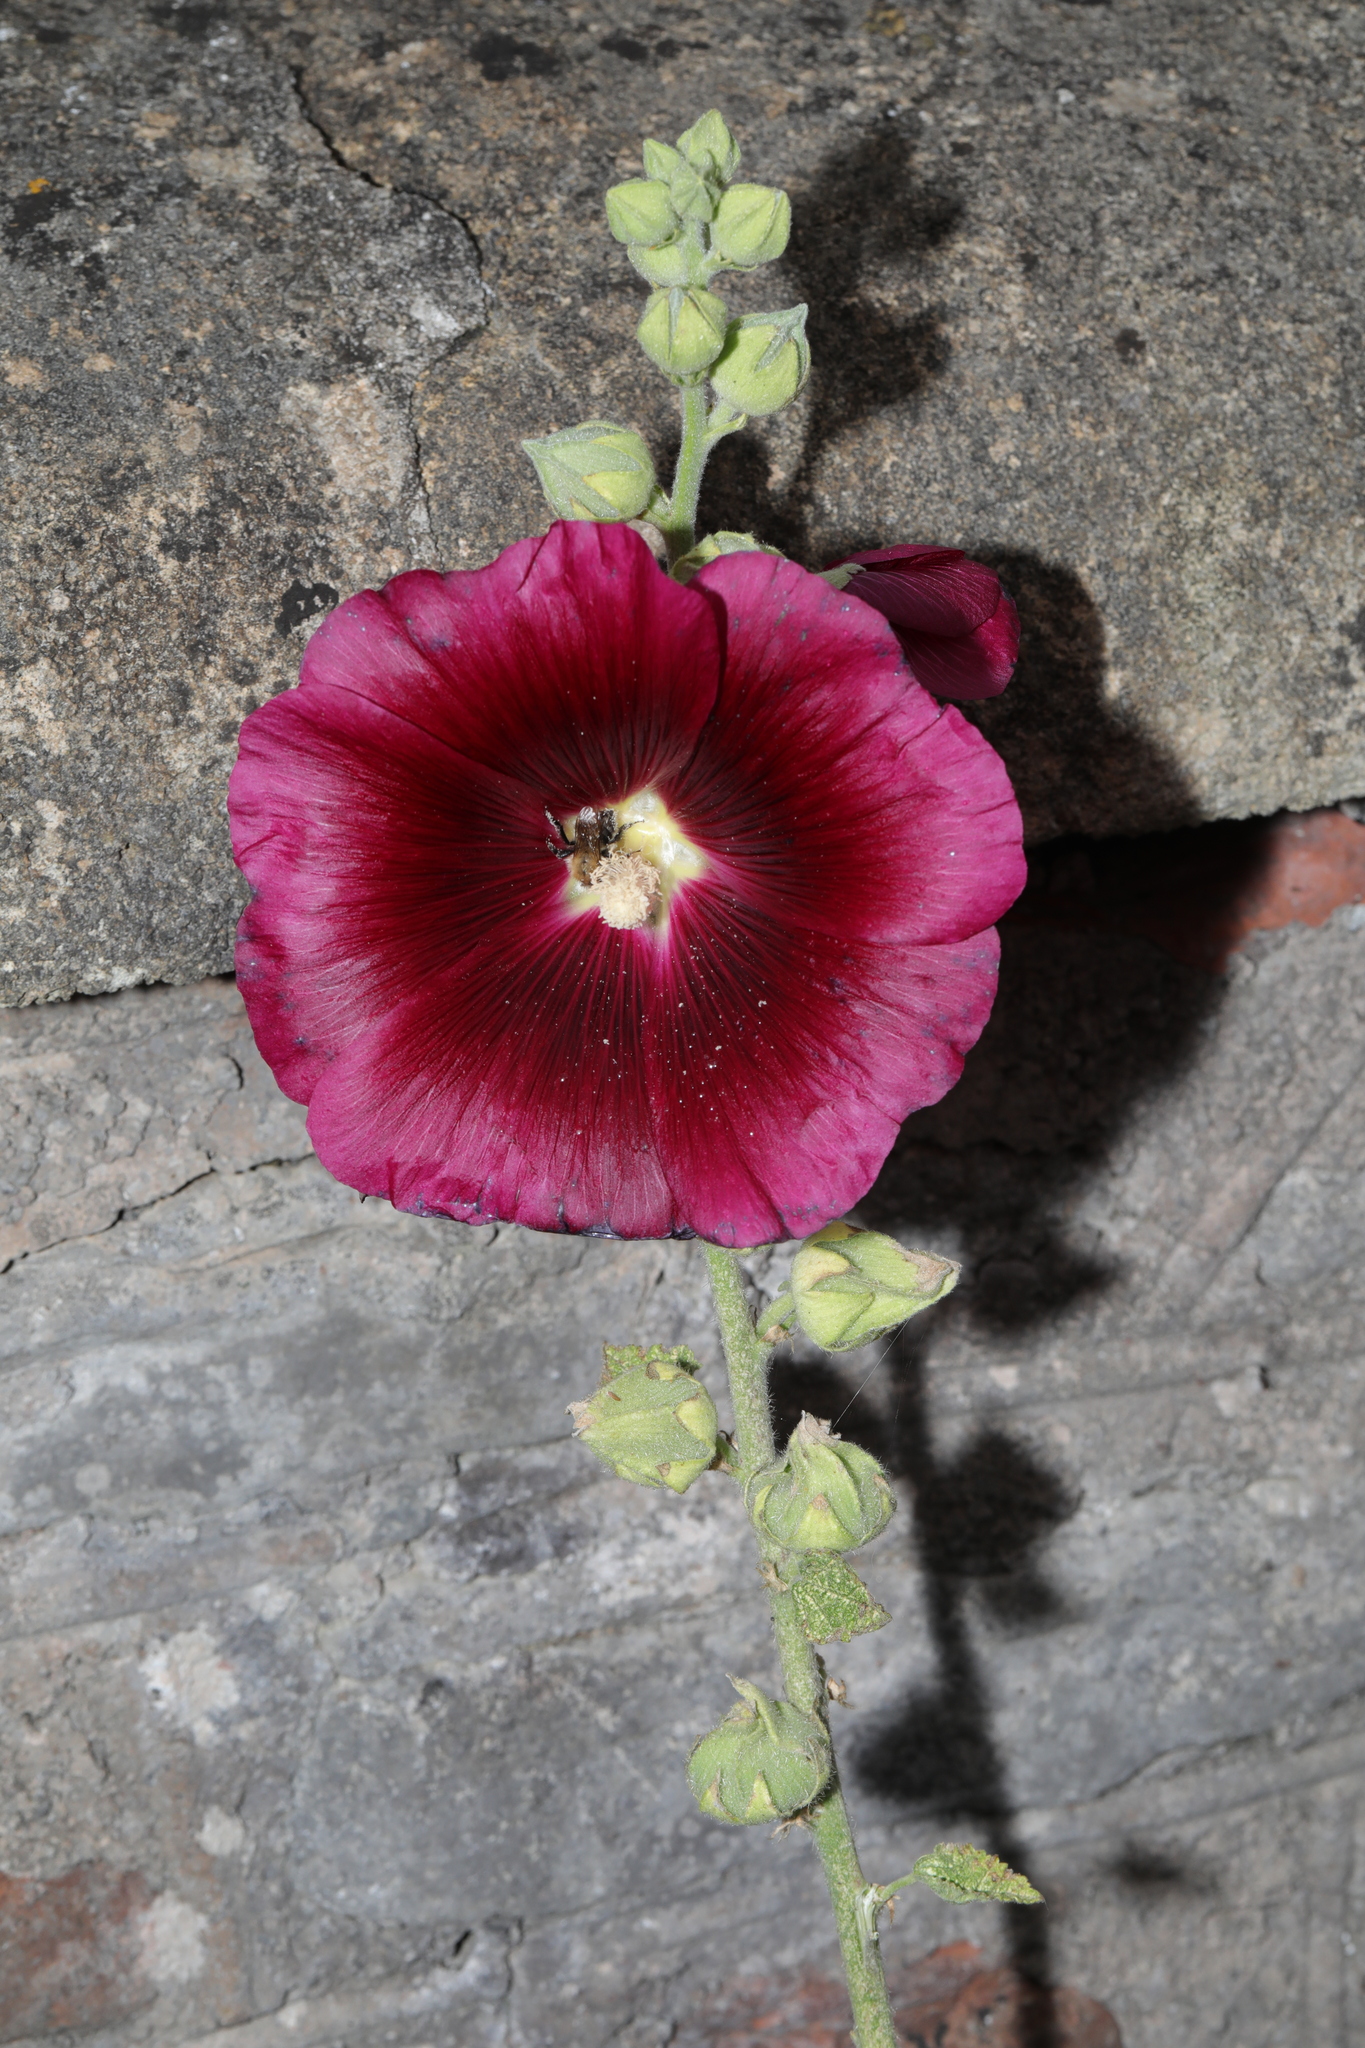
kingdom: Plantae
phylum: Tracheophyta
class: Magnoliopsida
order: Malvales
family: Malvaceae
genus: Alcea
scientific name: Alcea rosea
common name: Hollyhock
